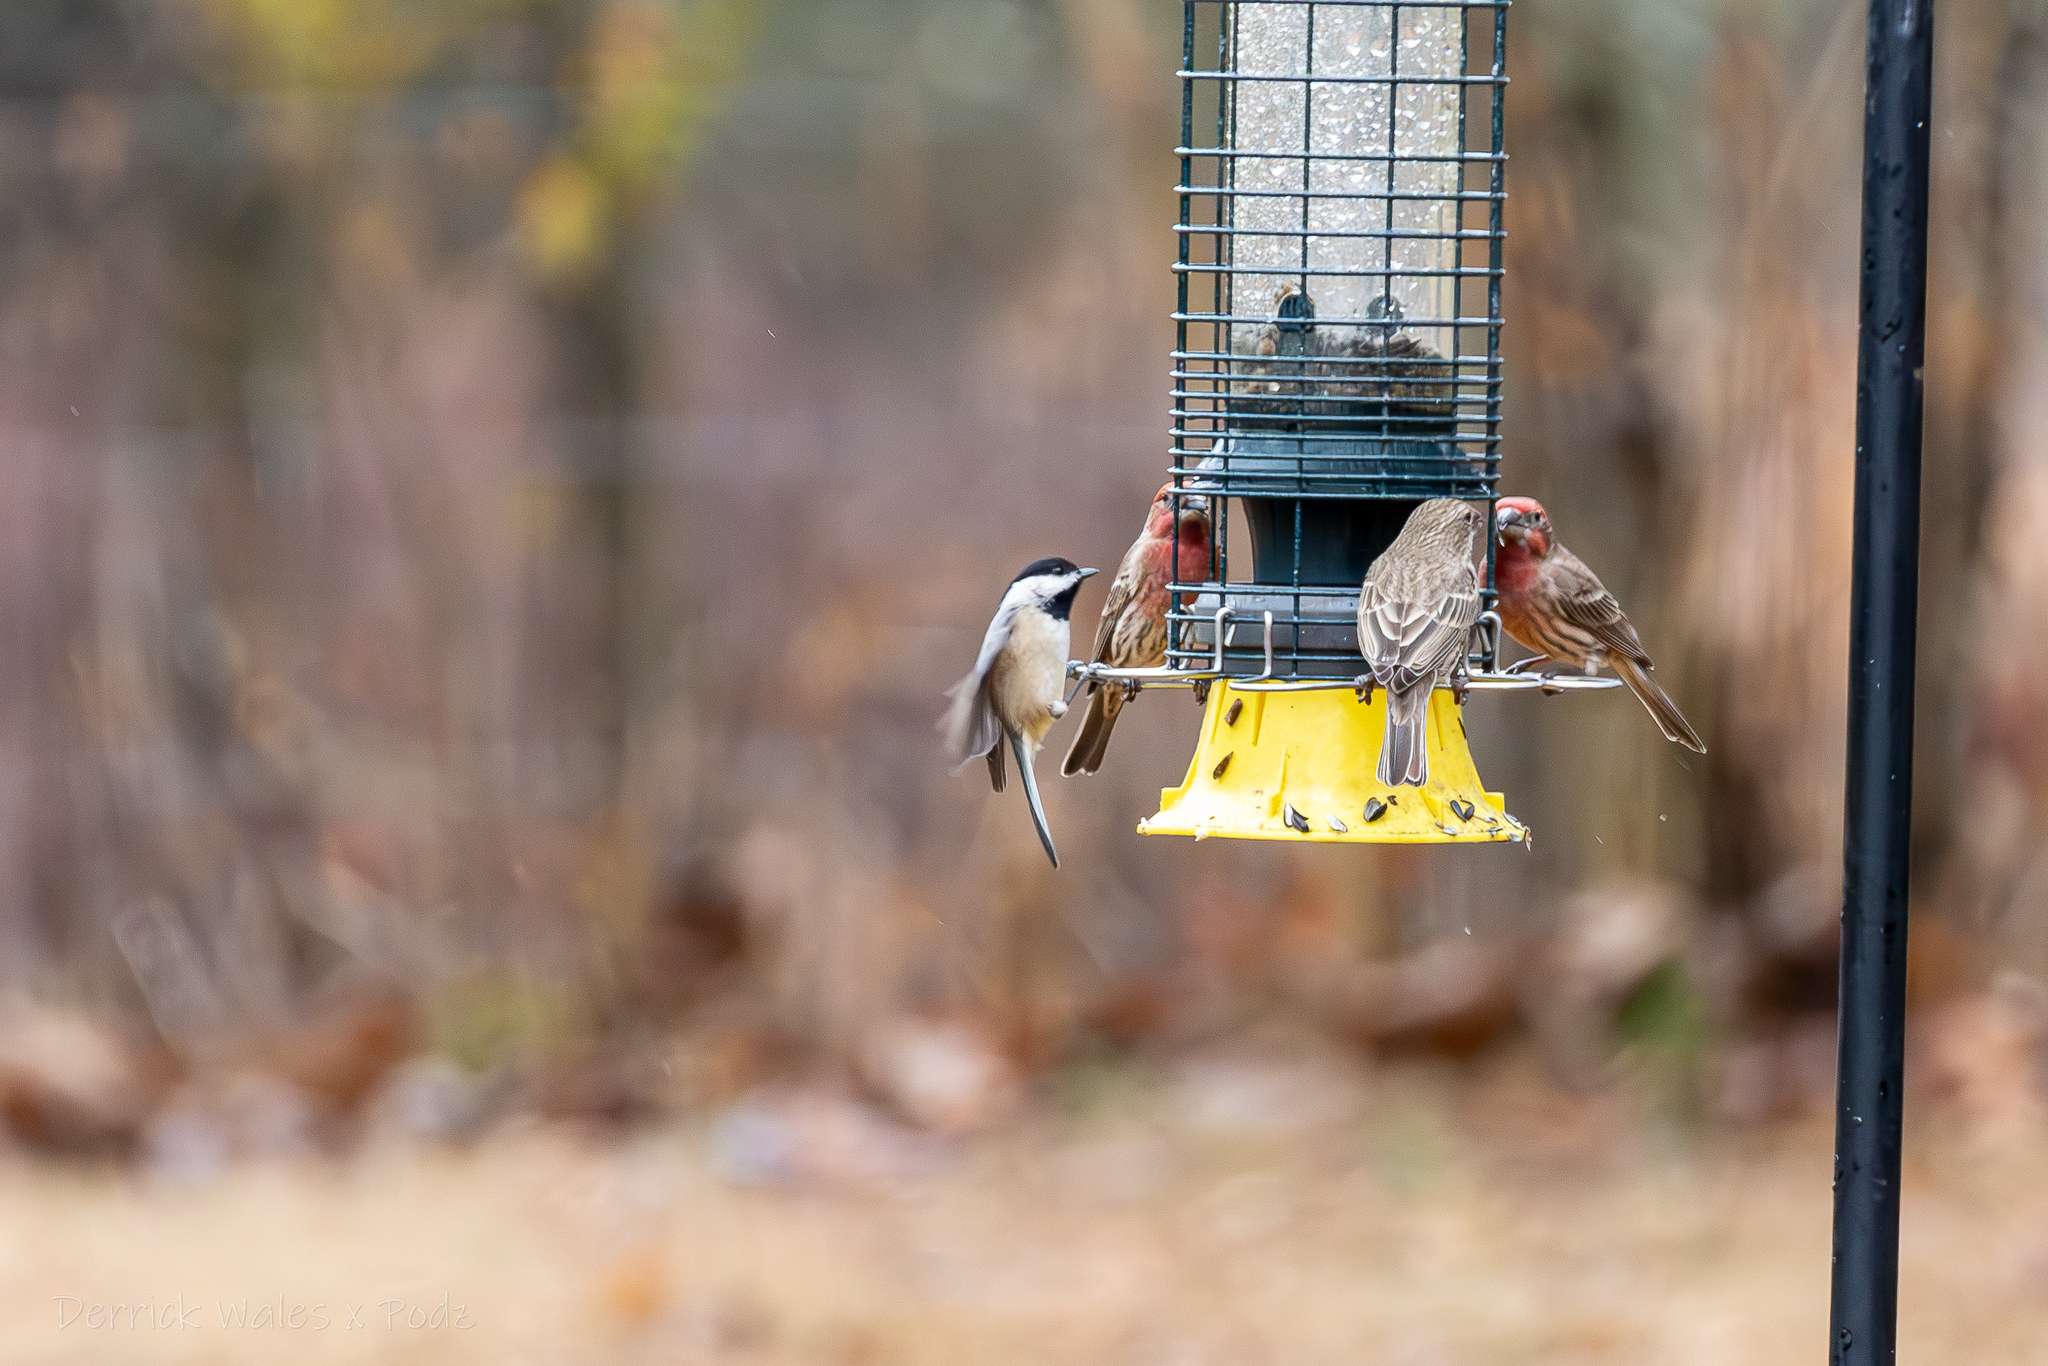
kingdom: Animalia
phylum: Chordata
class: Aves
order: Passeriformes
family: Paridae
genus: Poecile
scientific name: Poecile carolinensis
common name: Carolina chickadee
